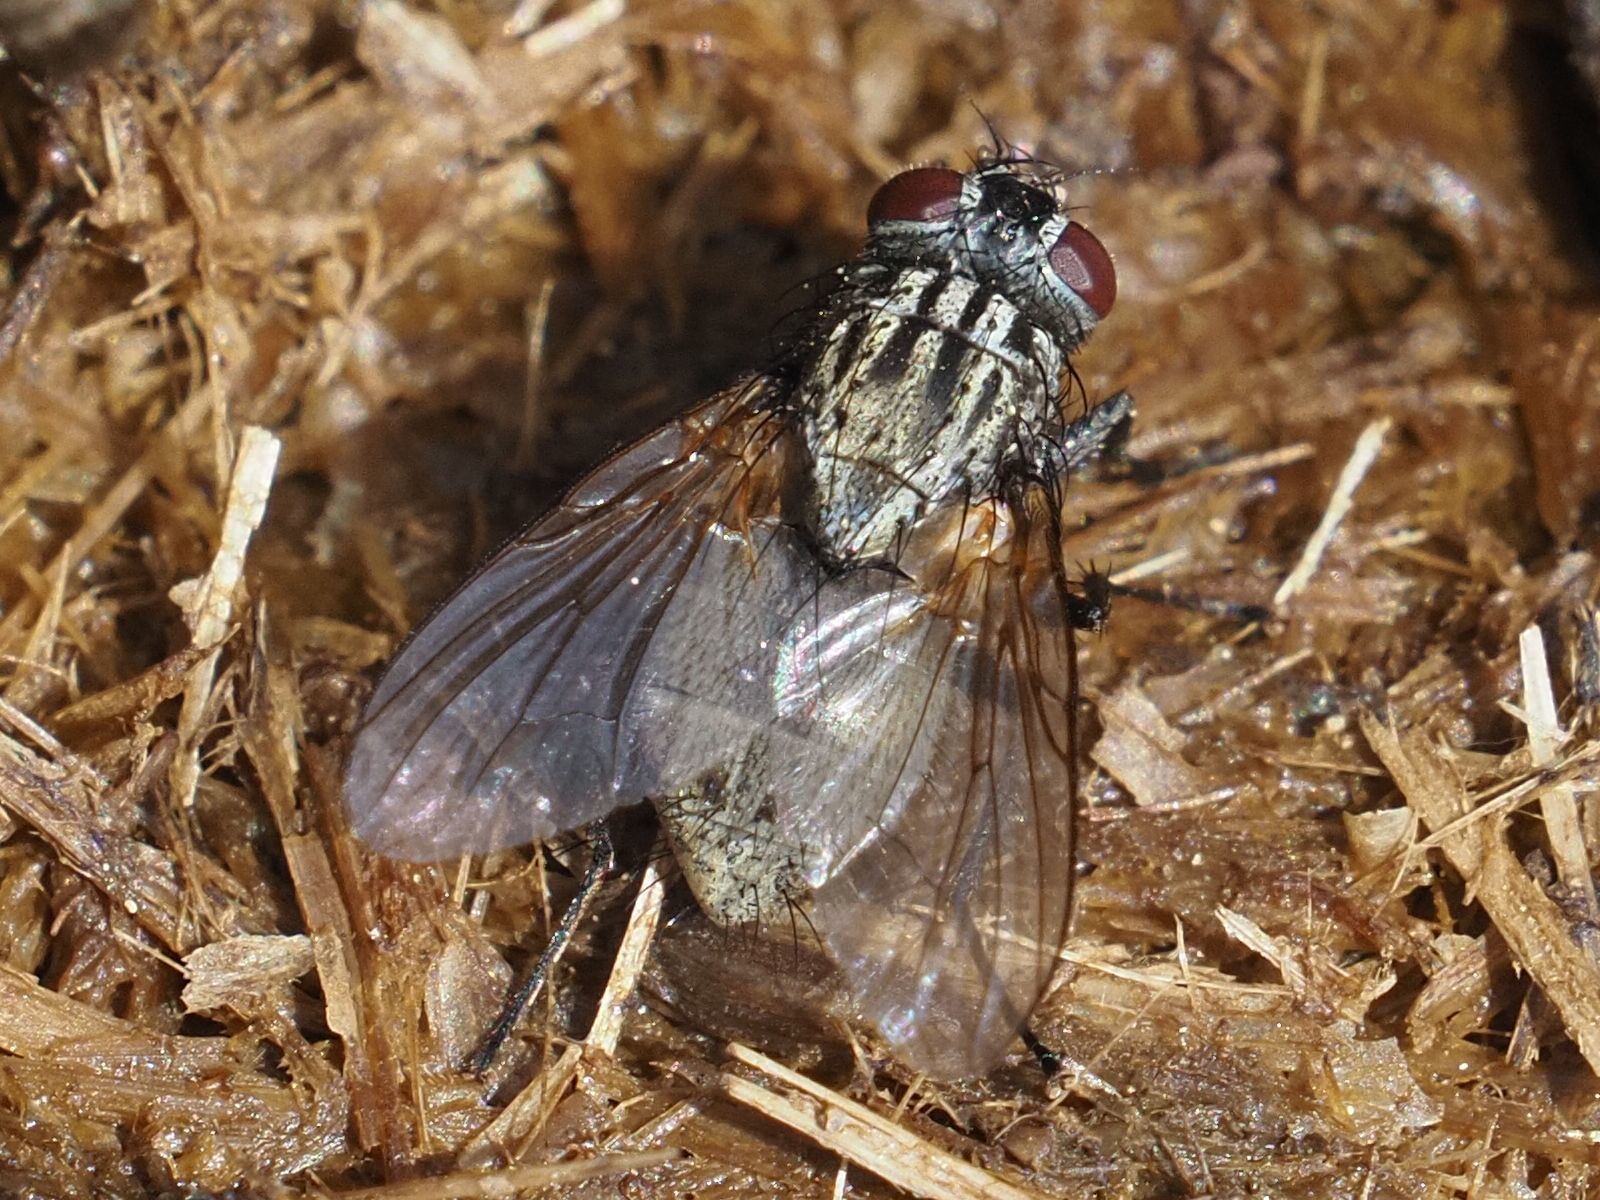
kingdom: Animalia
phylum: Arthropoda
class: Insecta
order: Diptera
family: Muscidae
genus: Myospila
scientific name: Myospila meditabunda
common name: Muscoid fly
